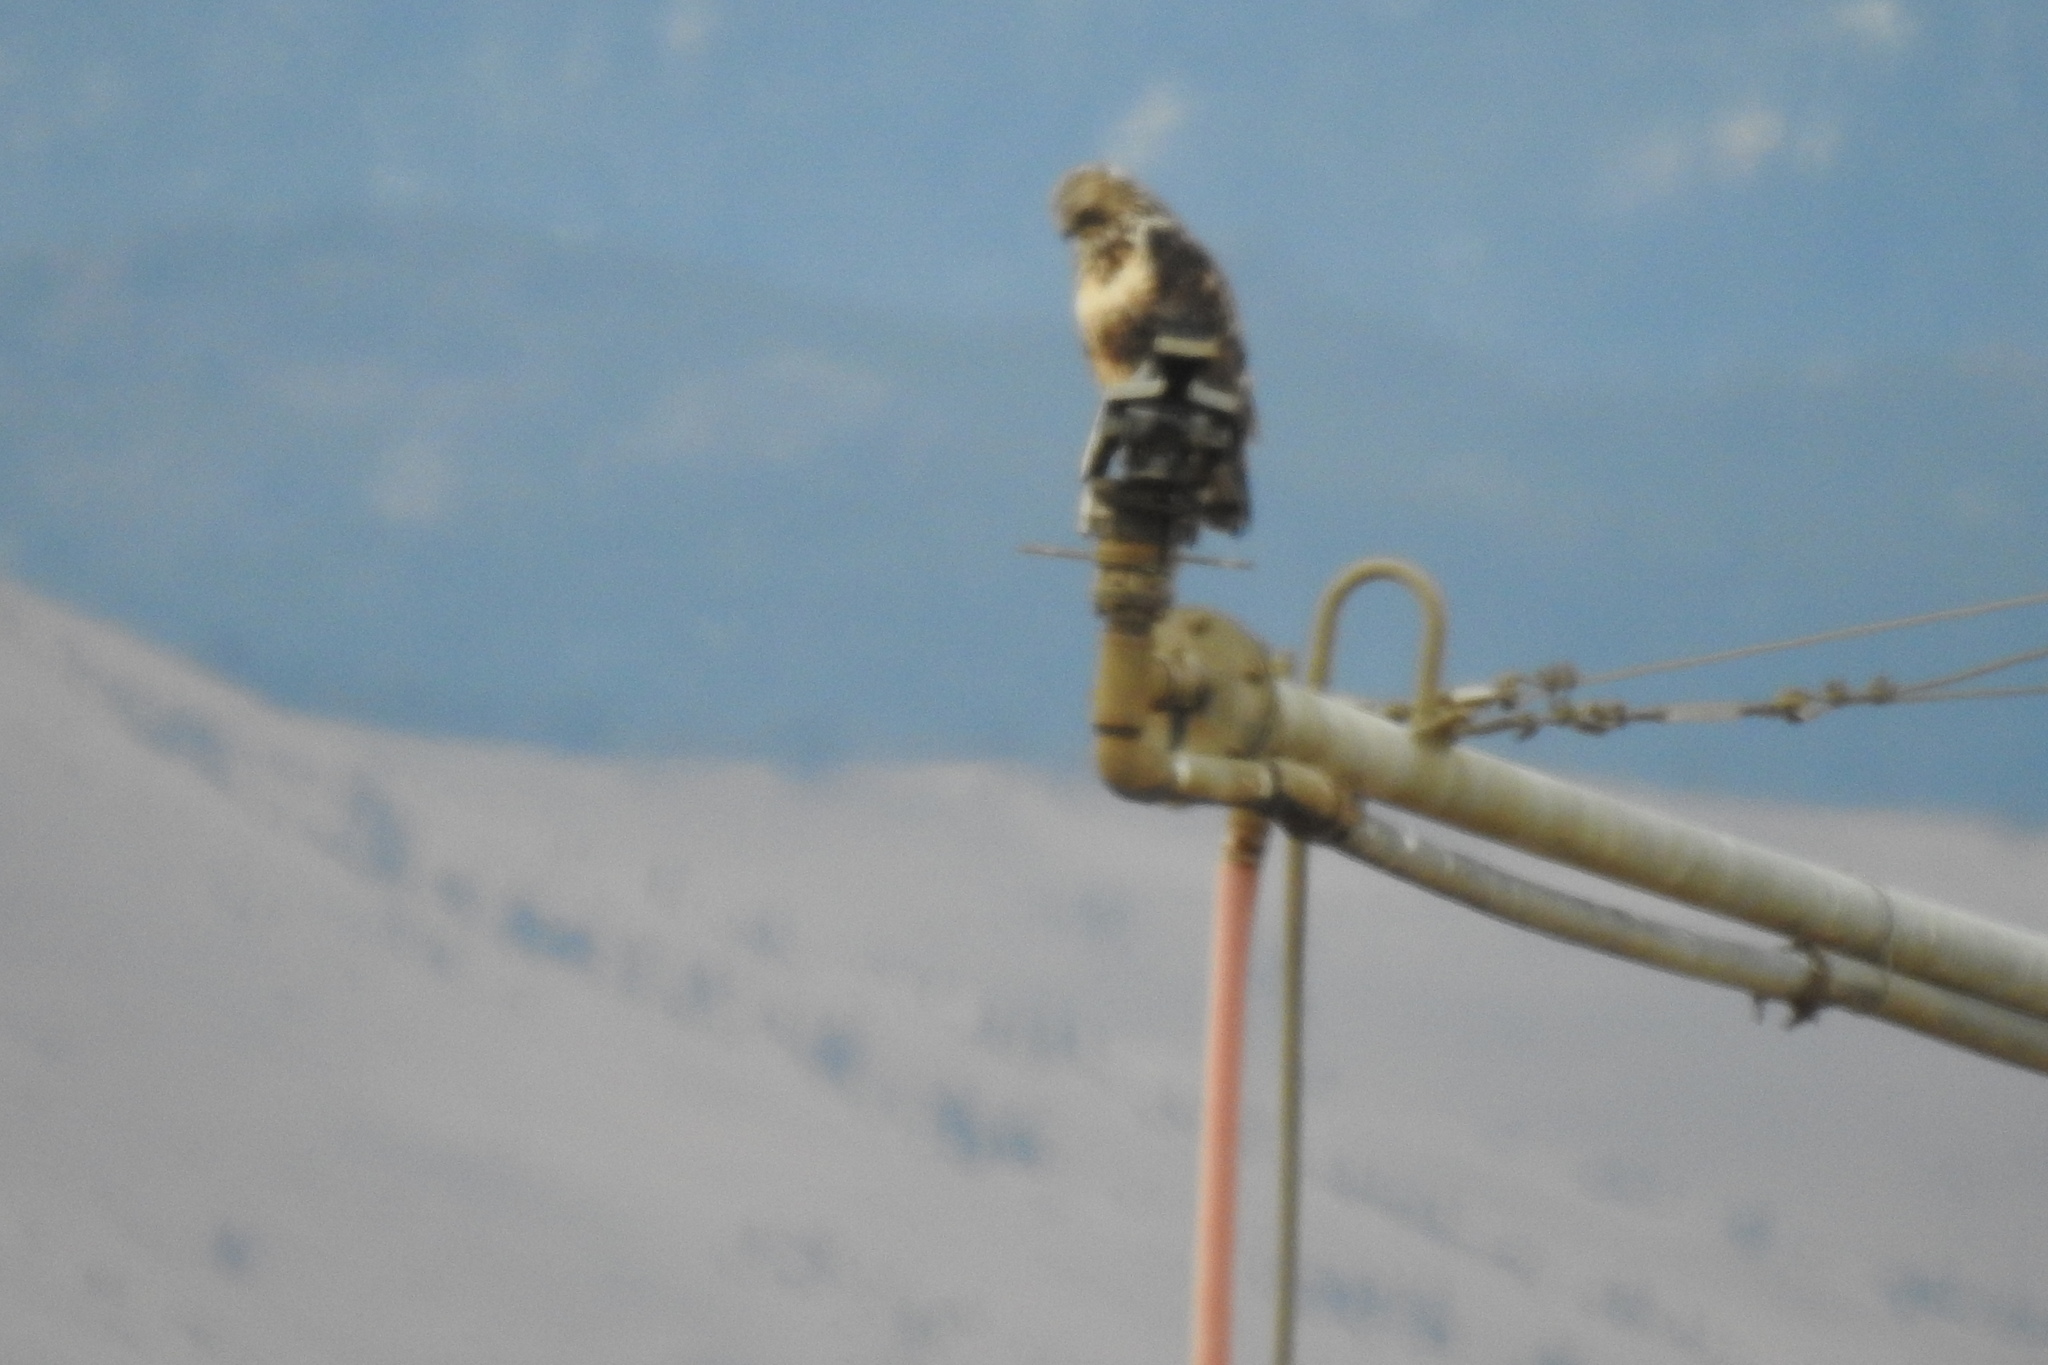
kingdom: Animalia
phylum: Chordata
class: Aves
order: Accipitriformes
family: Accipitridae
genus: Buteo
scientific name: Buteo lagopus
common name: Rough-legged buzzard
